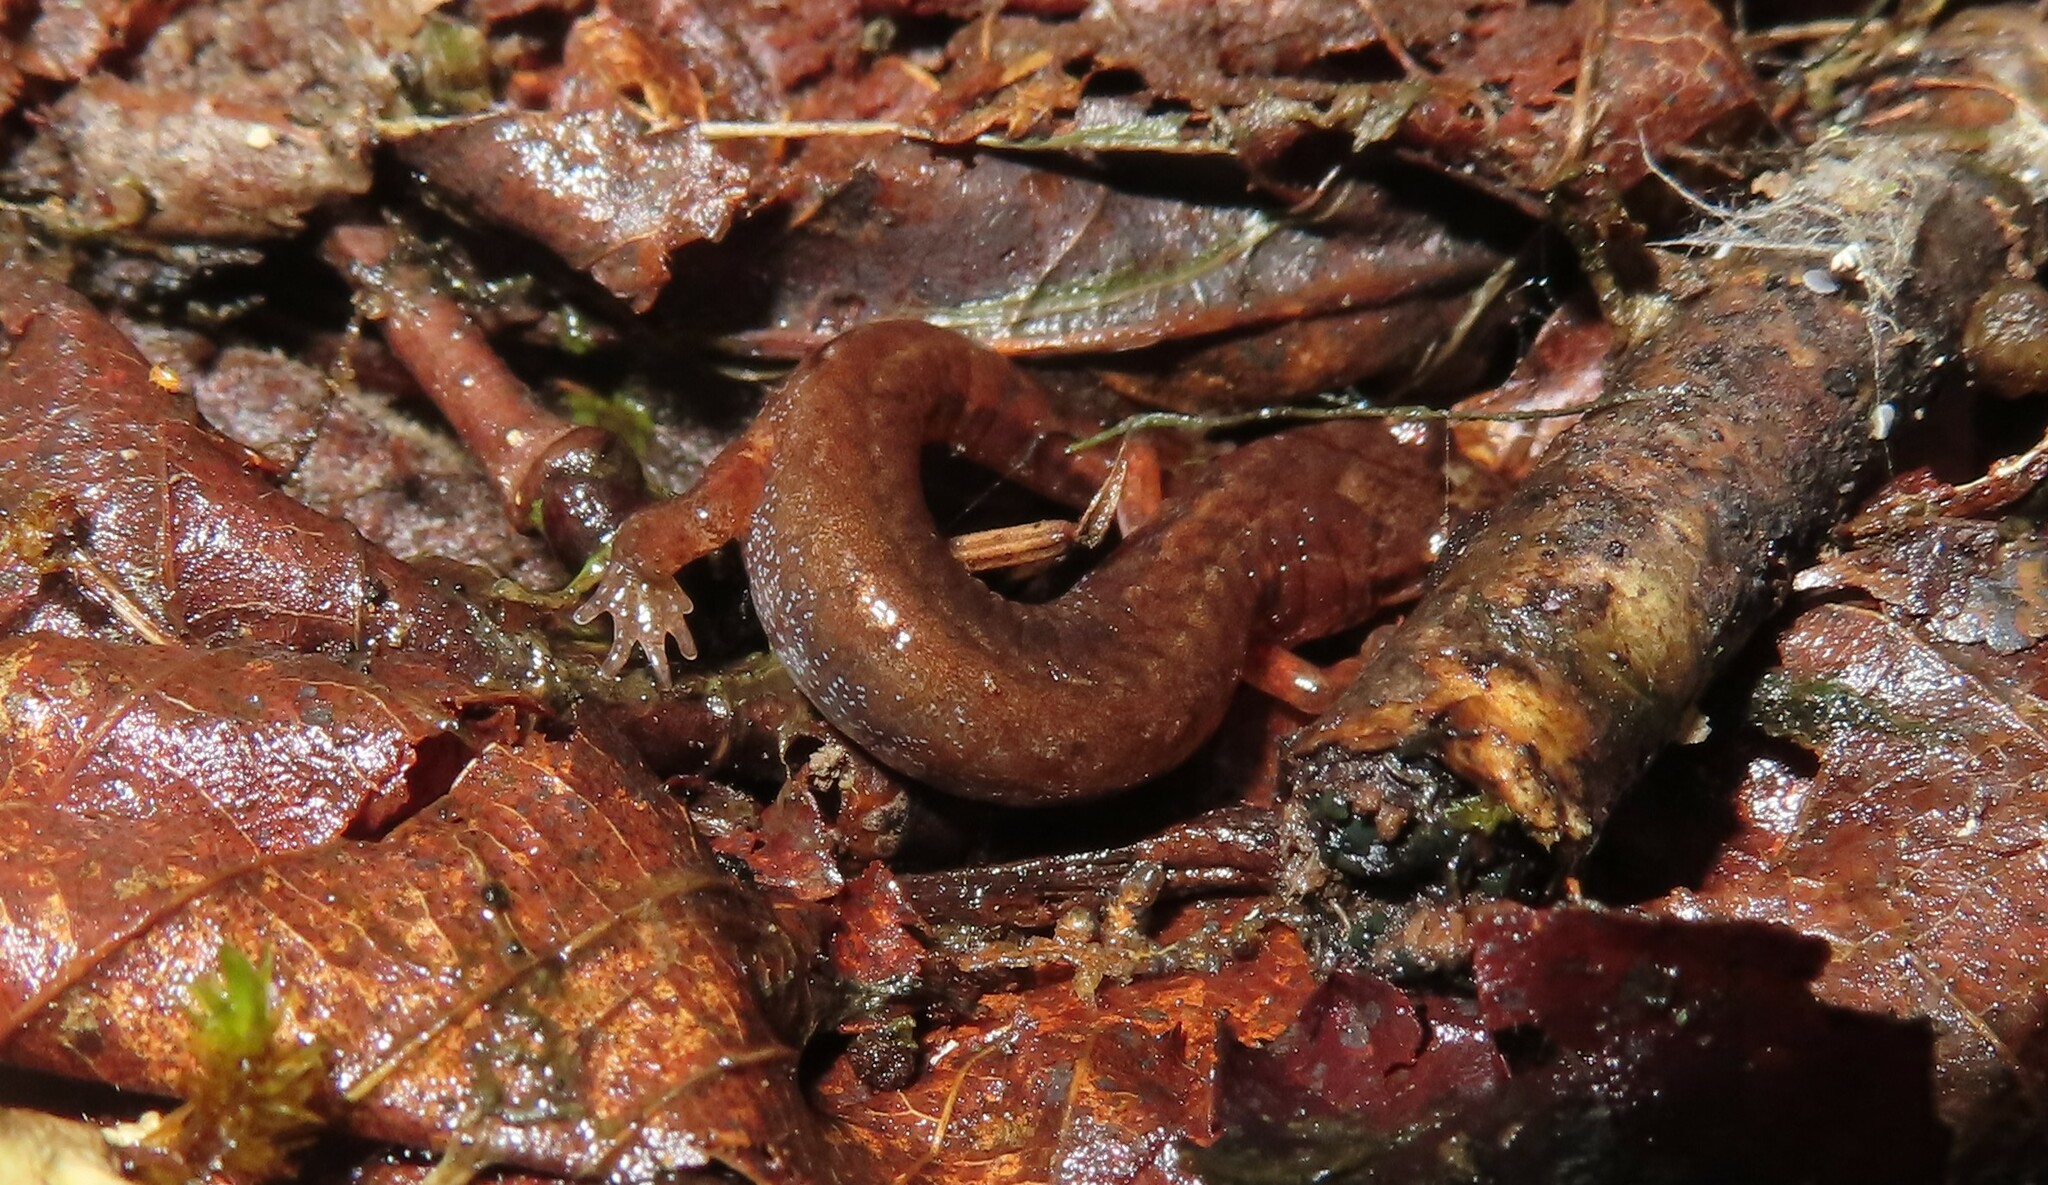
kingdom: Animalia
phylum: Chordata
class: Amphibia
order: Caudata
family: Plethodontidae
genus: Desmognathus
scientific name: Desmognathus wrighti
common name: Pygmy salamander
